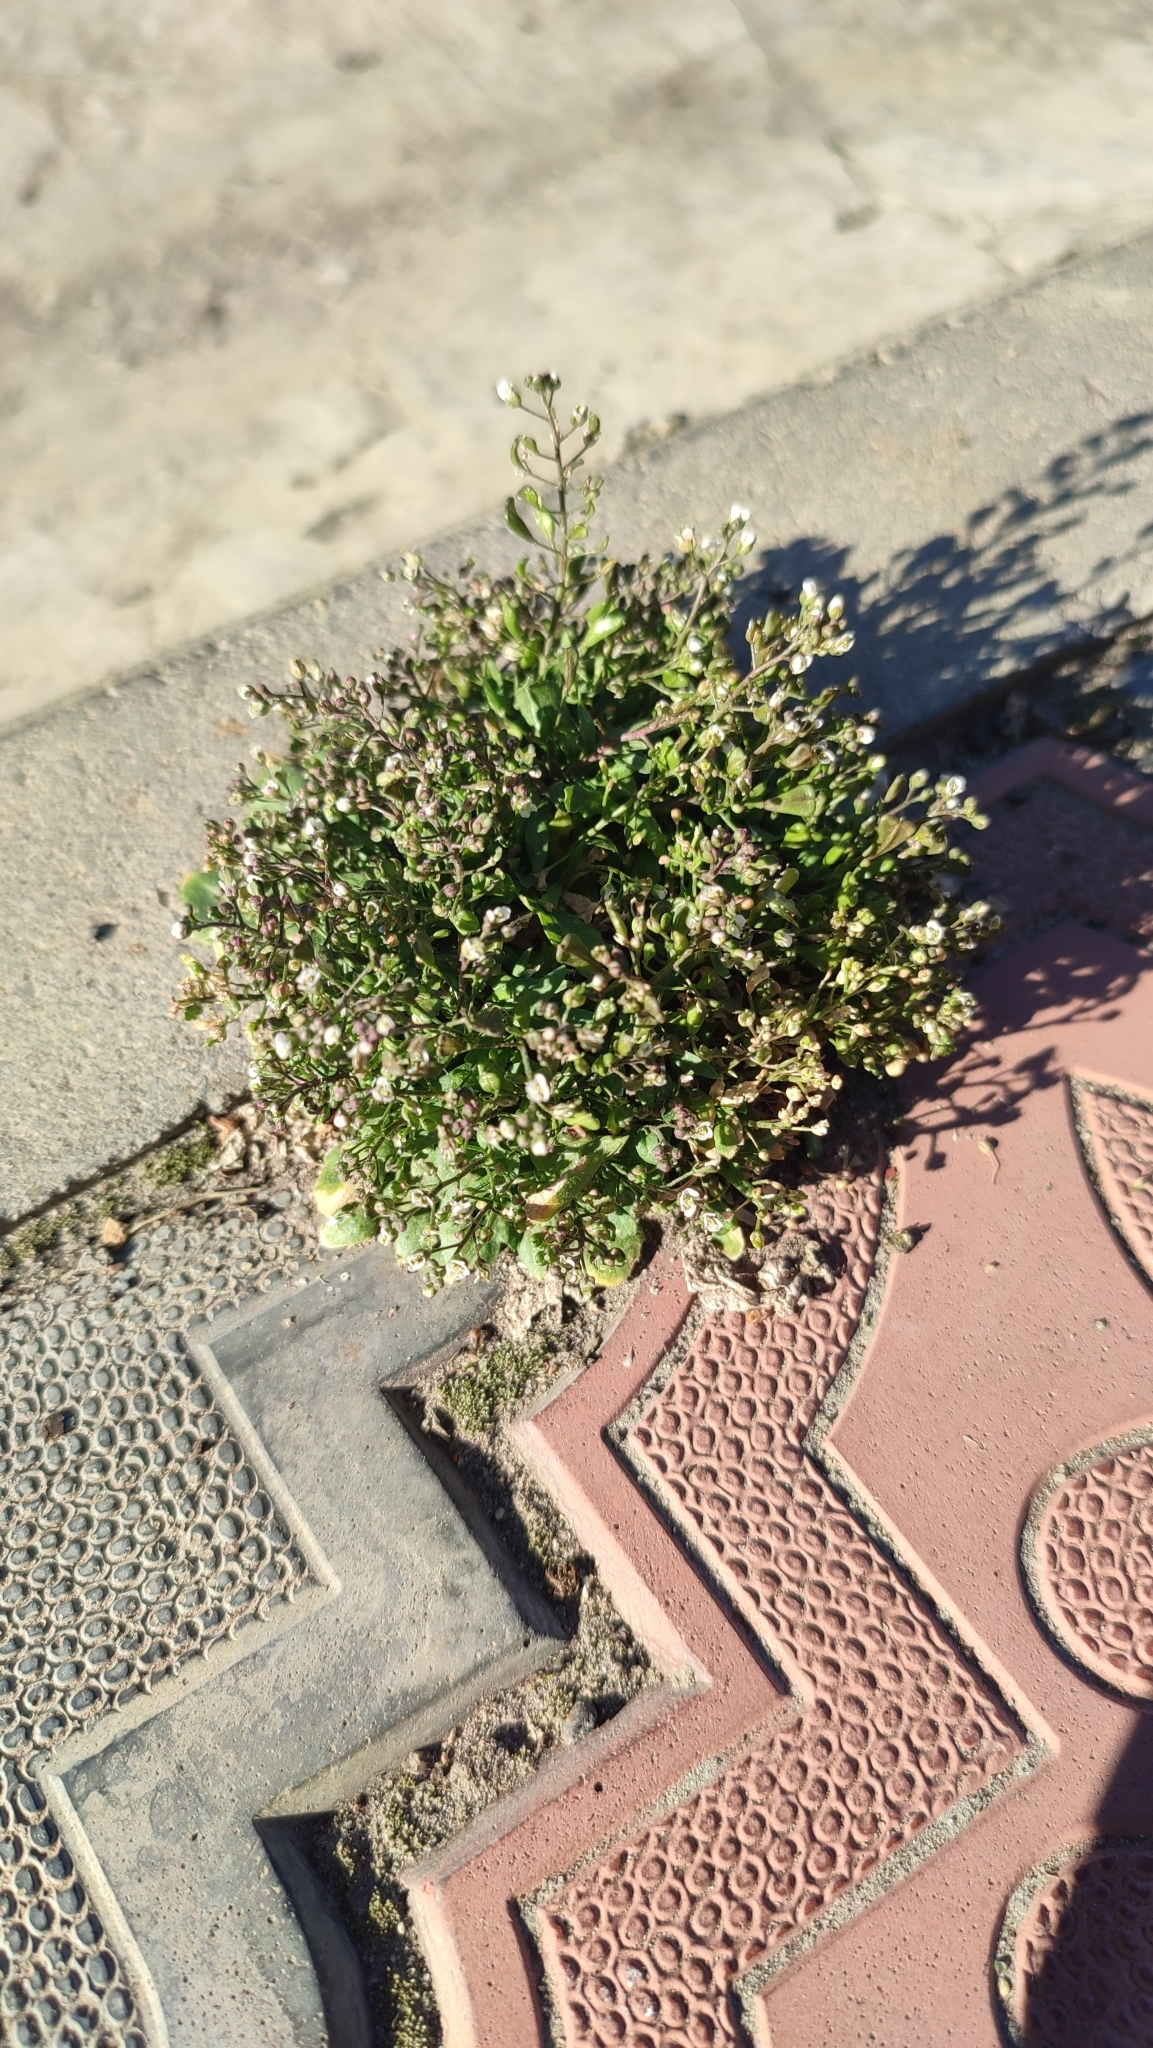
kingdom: Plantae
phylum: Tracheophyta
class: Magnoliopsida
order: Brassicales
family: Brassicaceae
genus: Capsella
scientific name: Capsella bursa-pastoris
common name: Shepherd's purse
